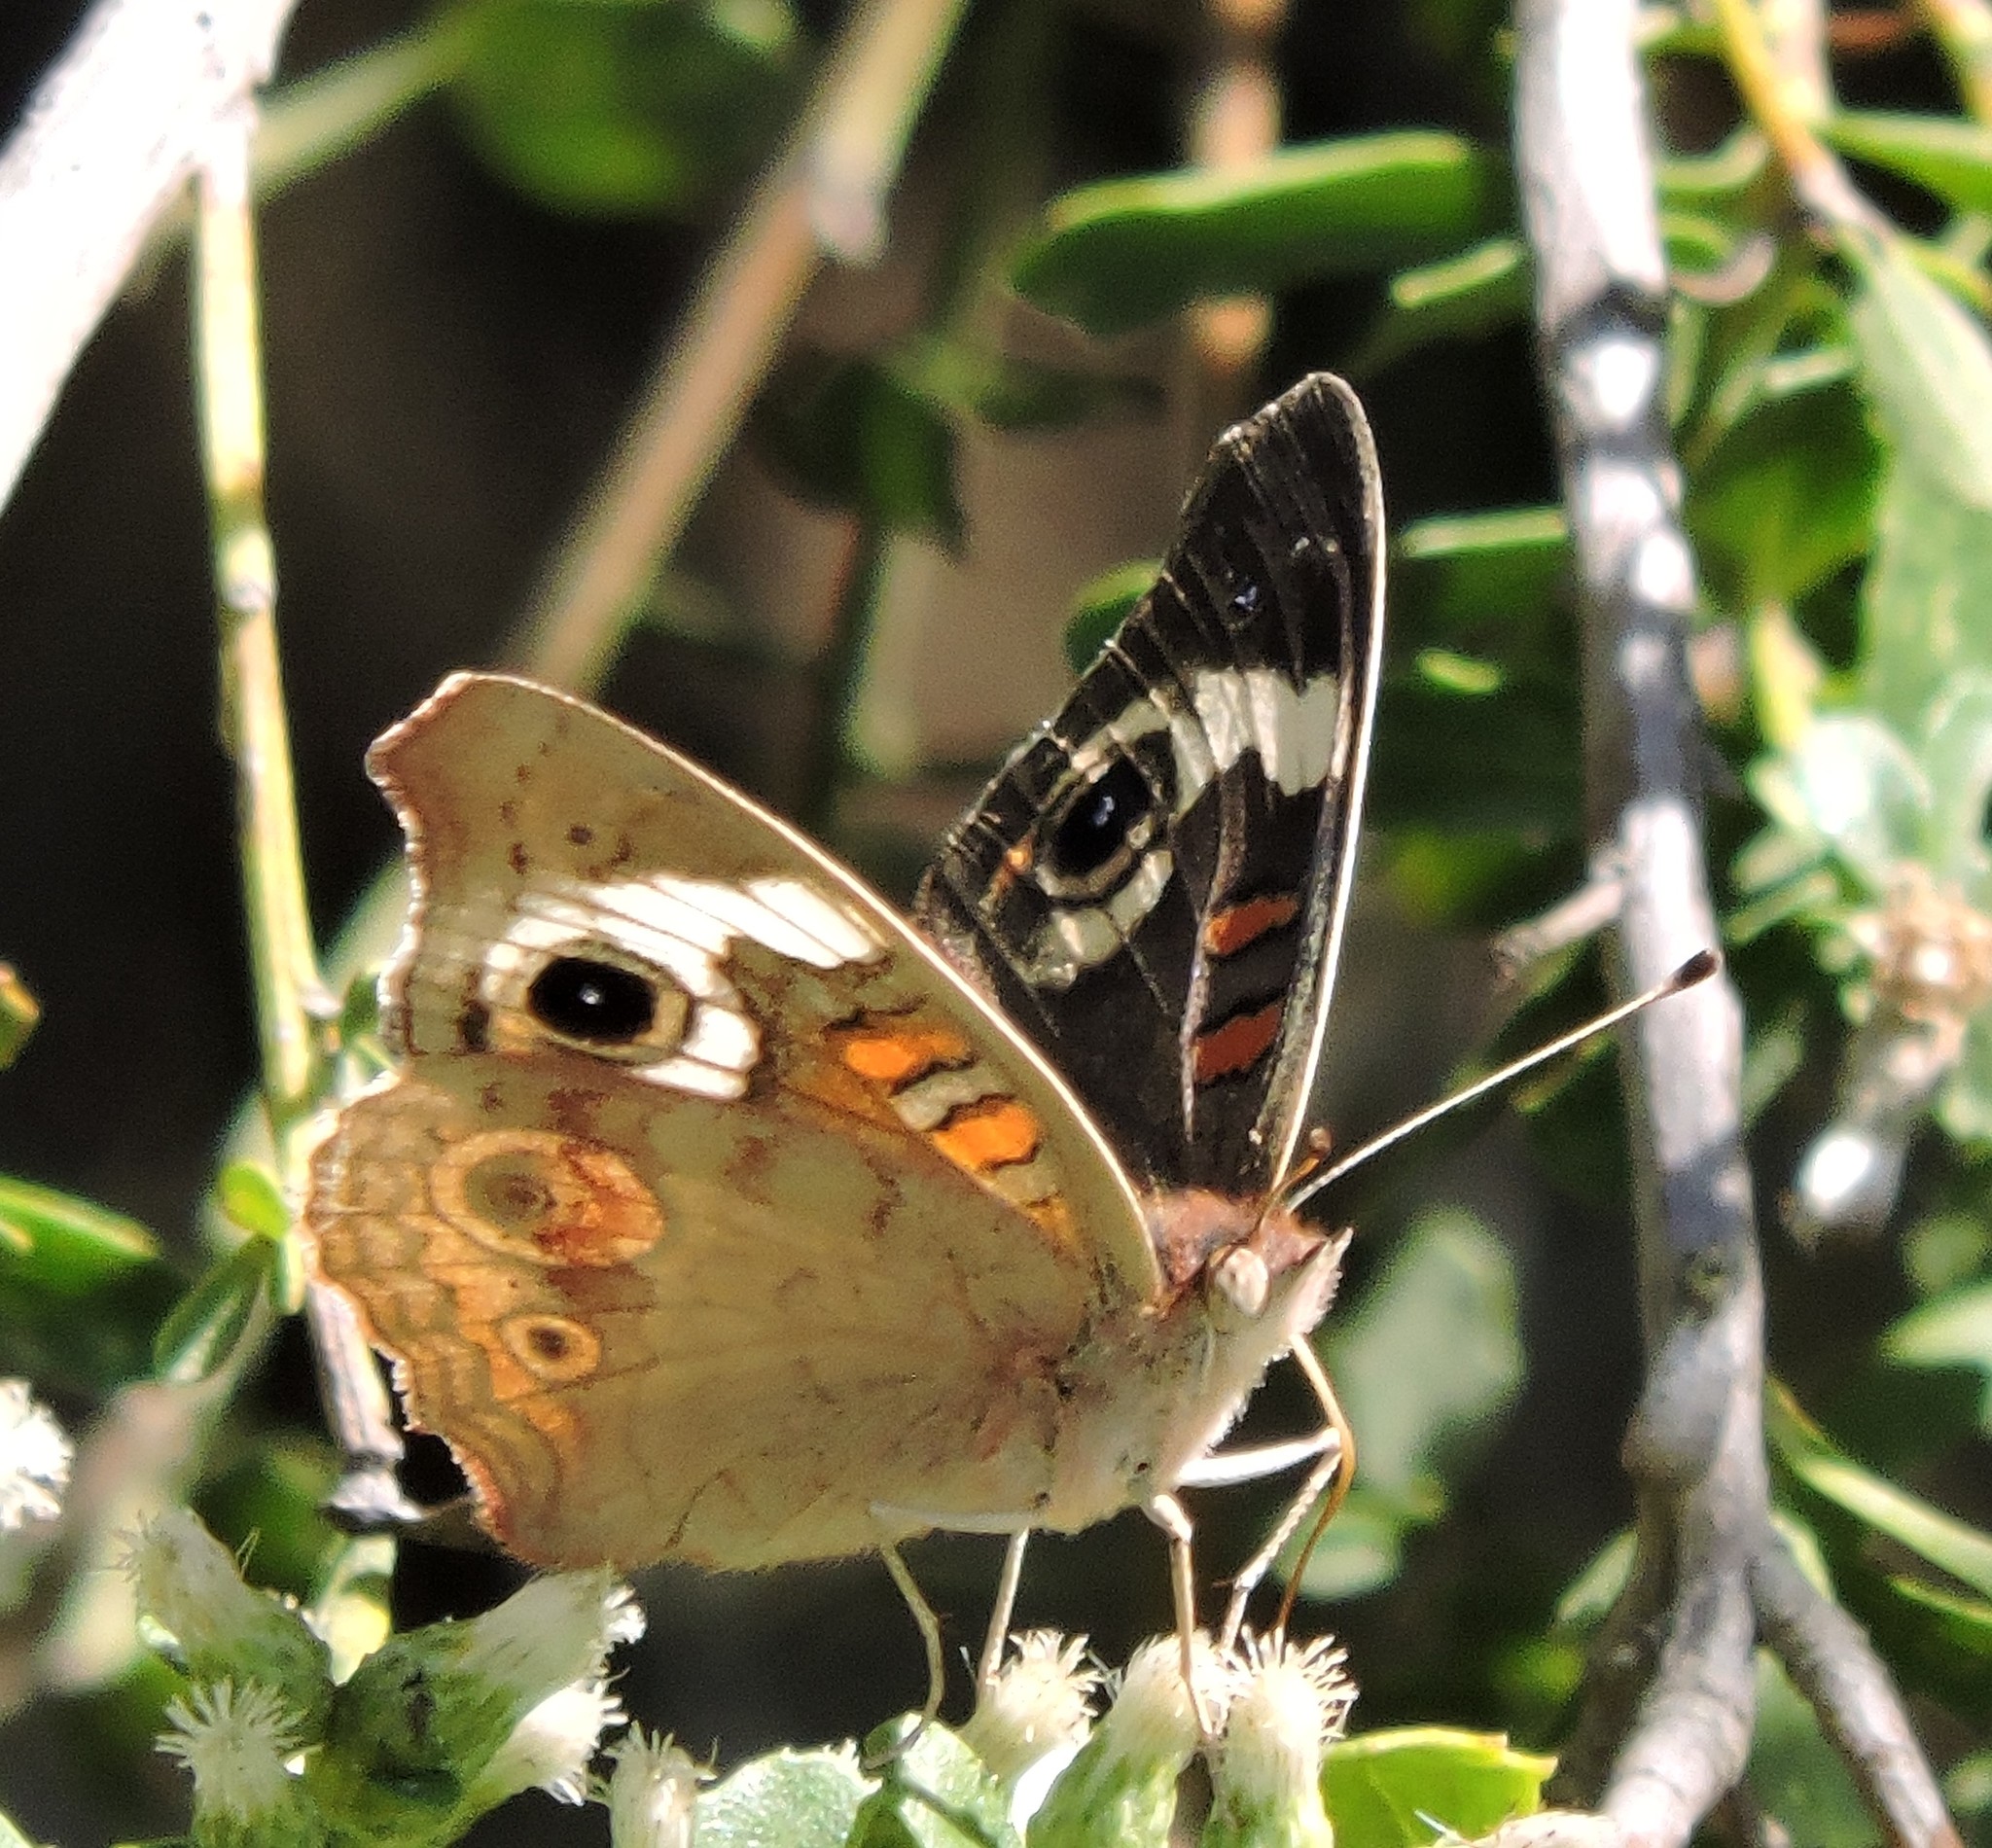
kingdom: Animalia
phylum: Arthropoda
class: Insecta
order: Lepidoptera
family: Nymphalidae
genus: Junonia
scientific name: Junonia grisea
